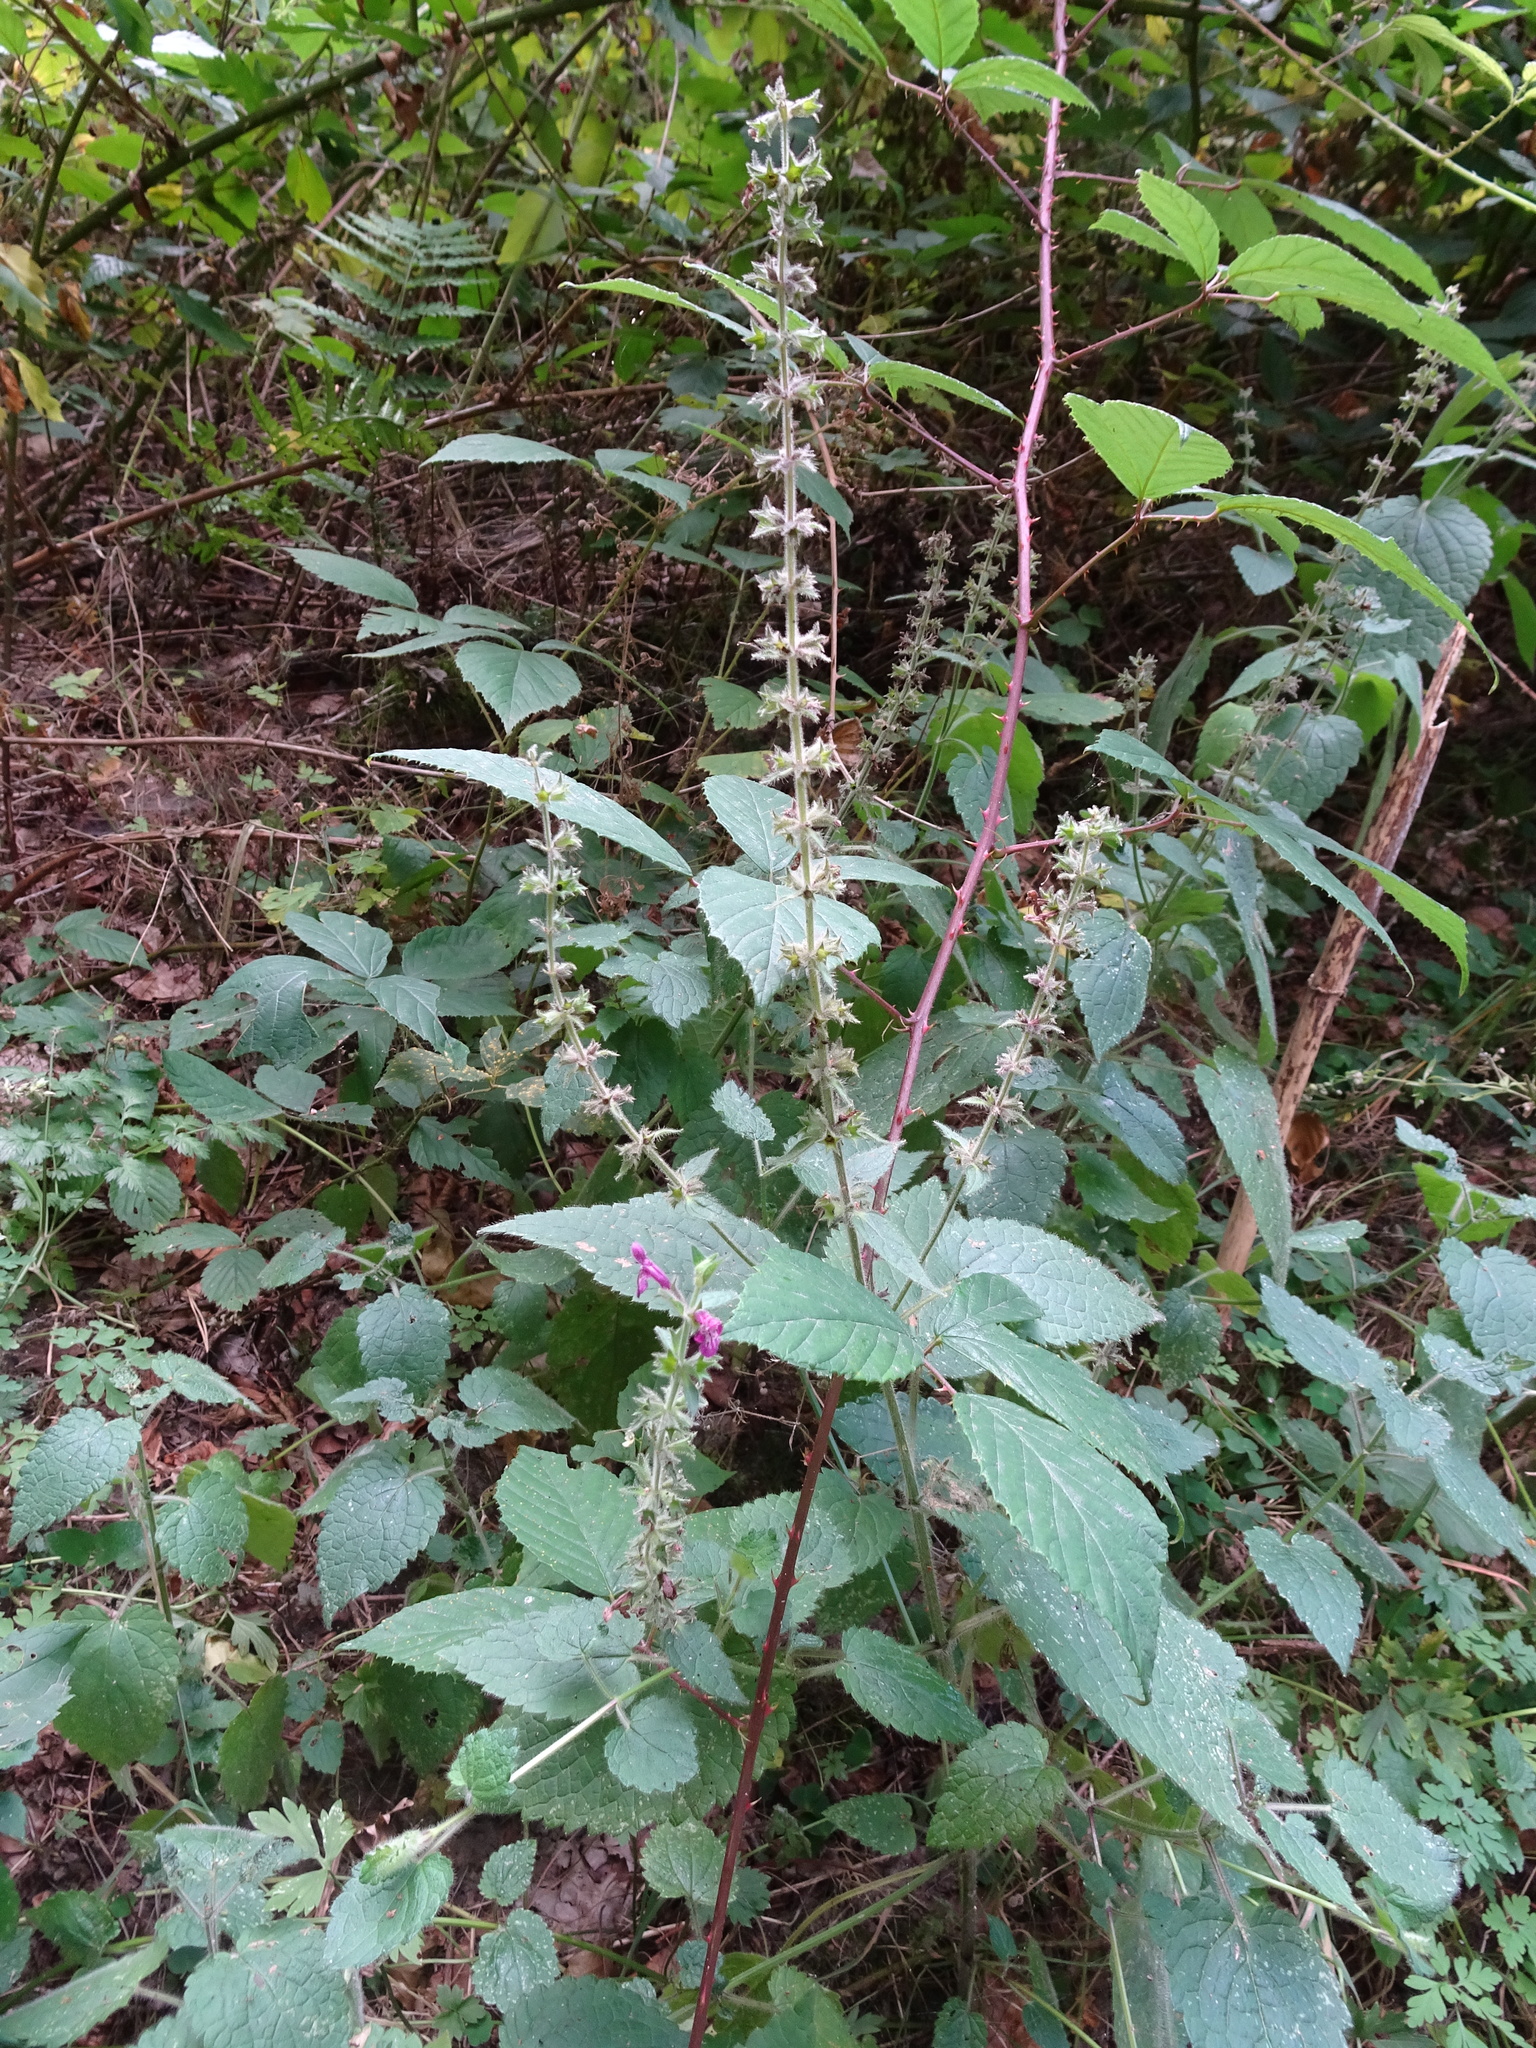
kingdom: Plantae
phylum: Tracheophyta
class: Magnoliopsida
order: Lamiales
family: Lamiaceae
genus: Stachys
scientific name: Stachys sylvatica
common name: Hedge woundwort
